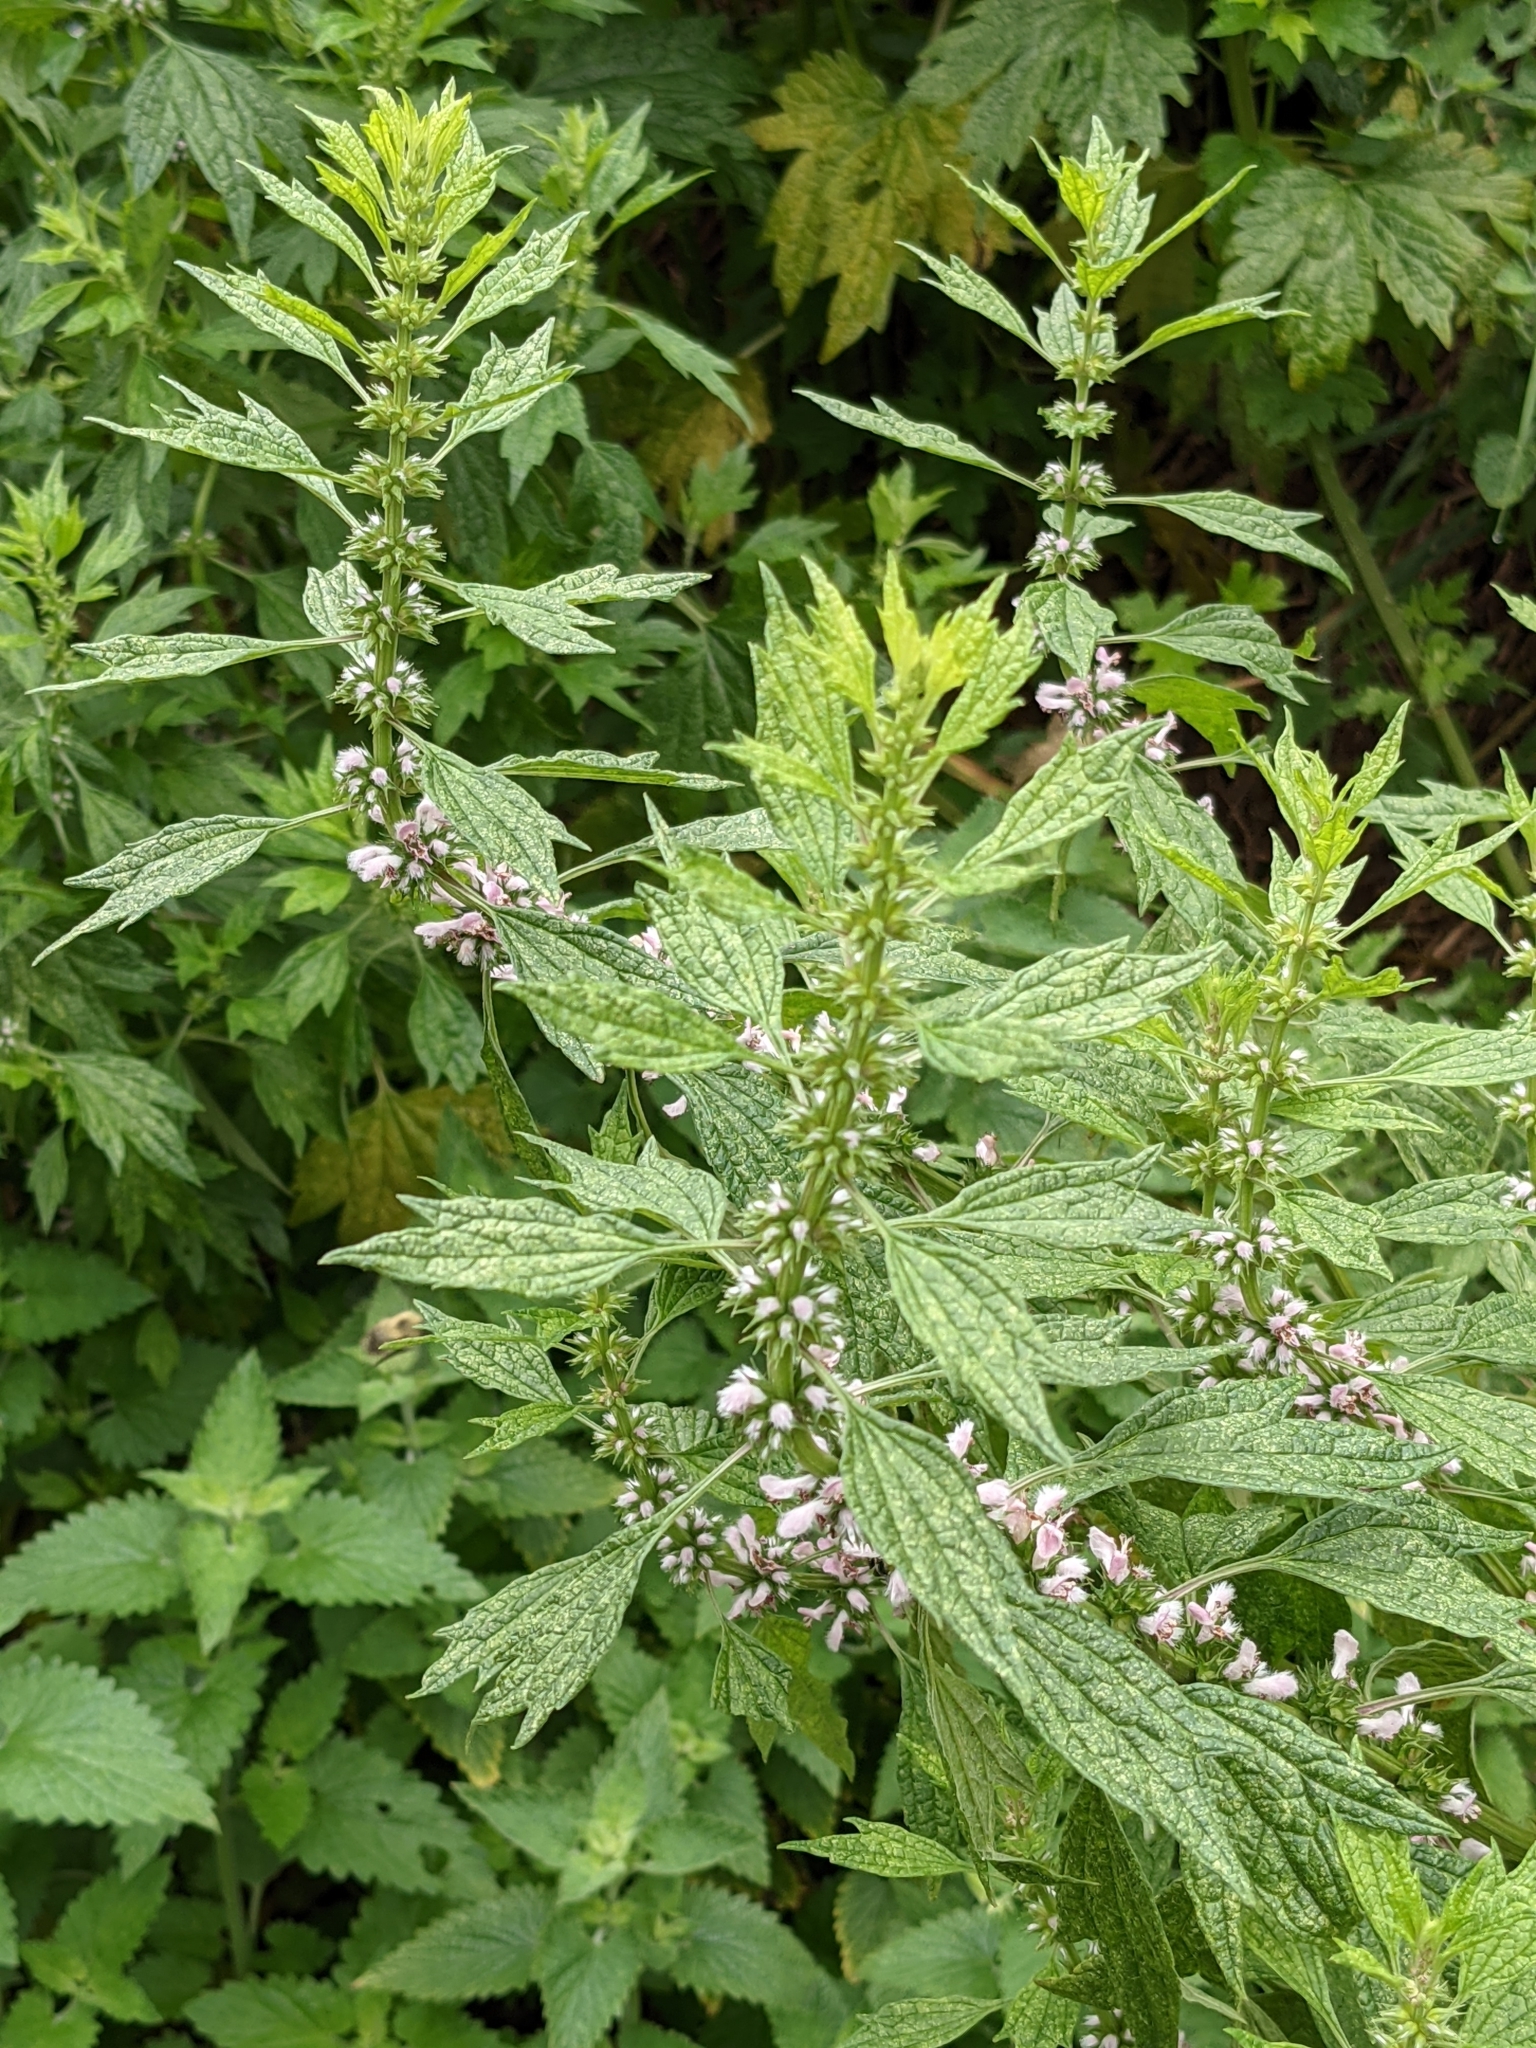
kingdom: Plantae
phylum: Tracheophyta
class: Magnoliopsida
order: Lamiales
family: Lamiaceae
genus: Leonurus
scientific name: Leonurus cardiaca
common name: Motherwort
